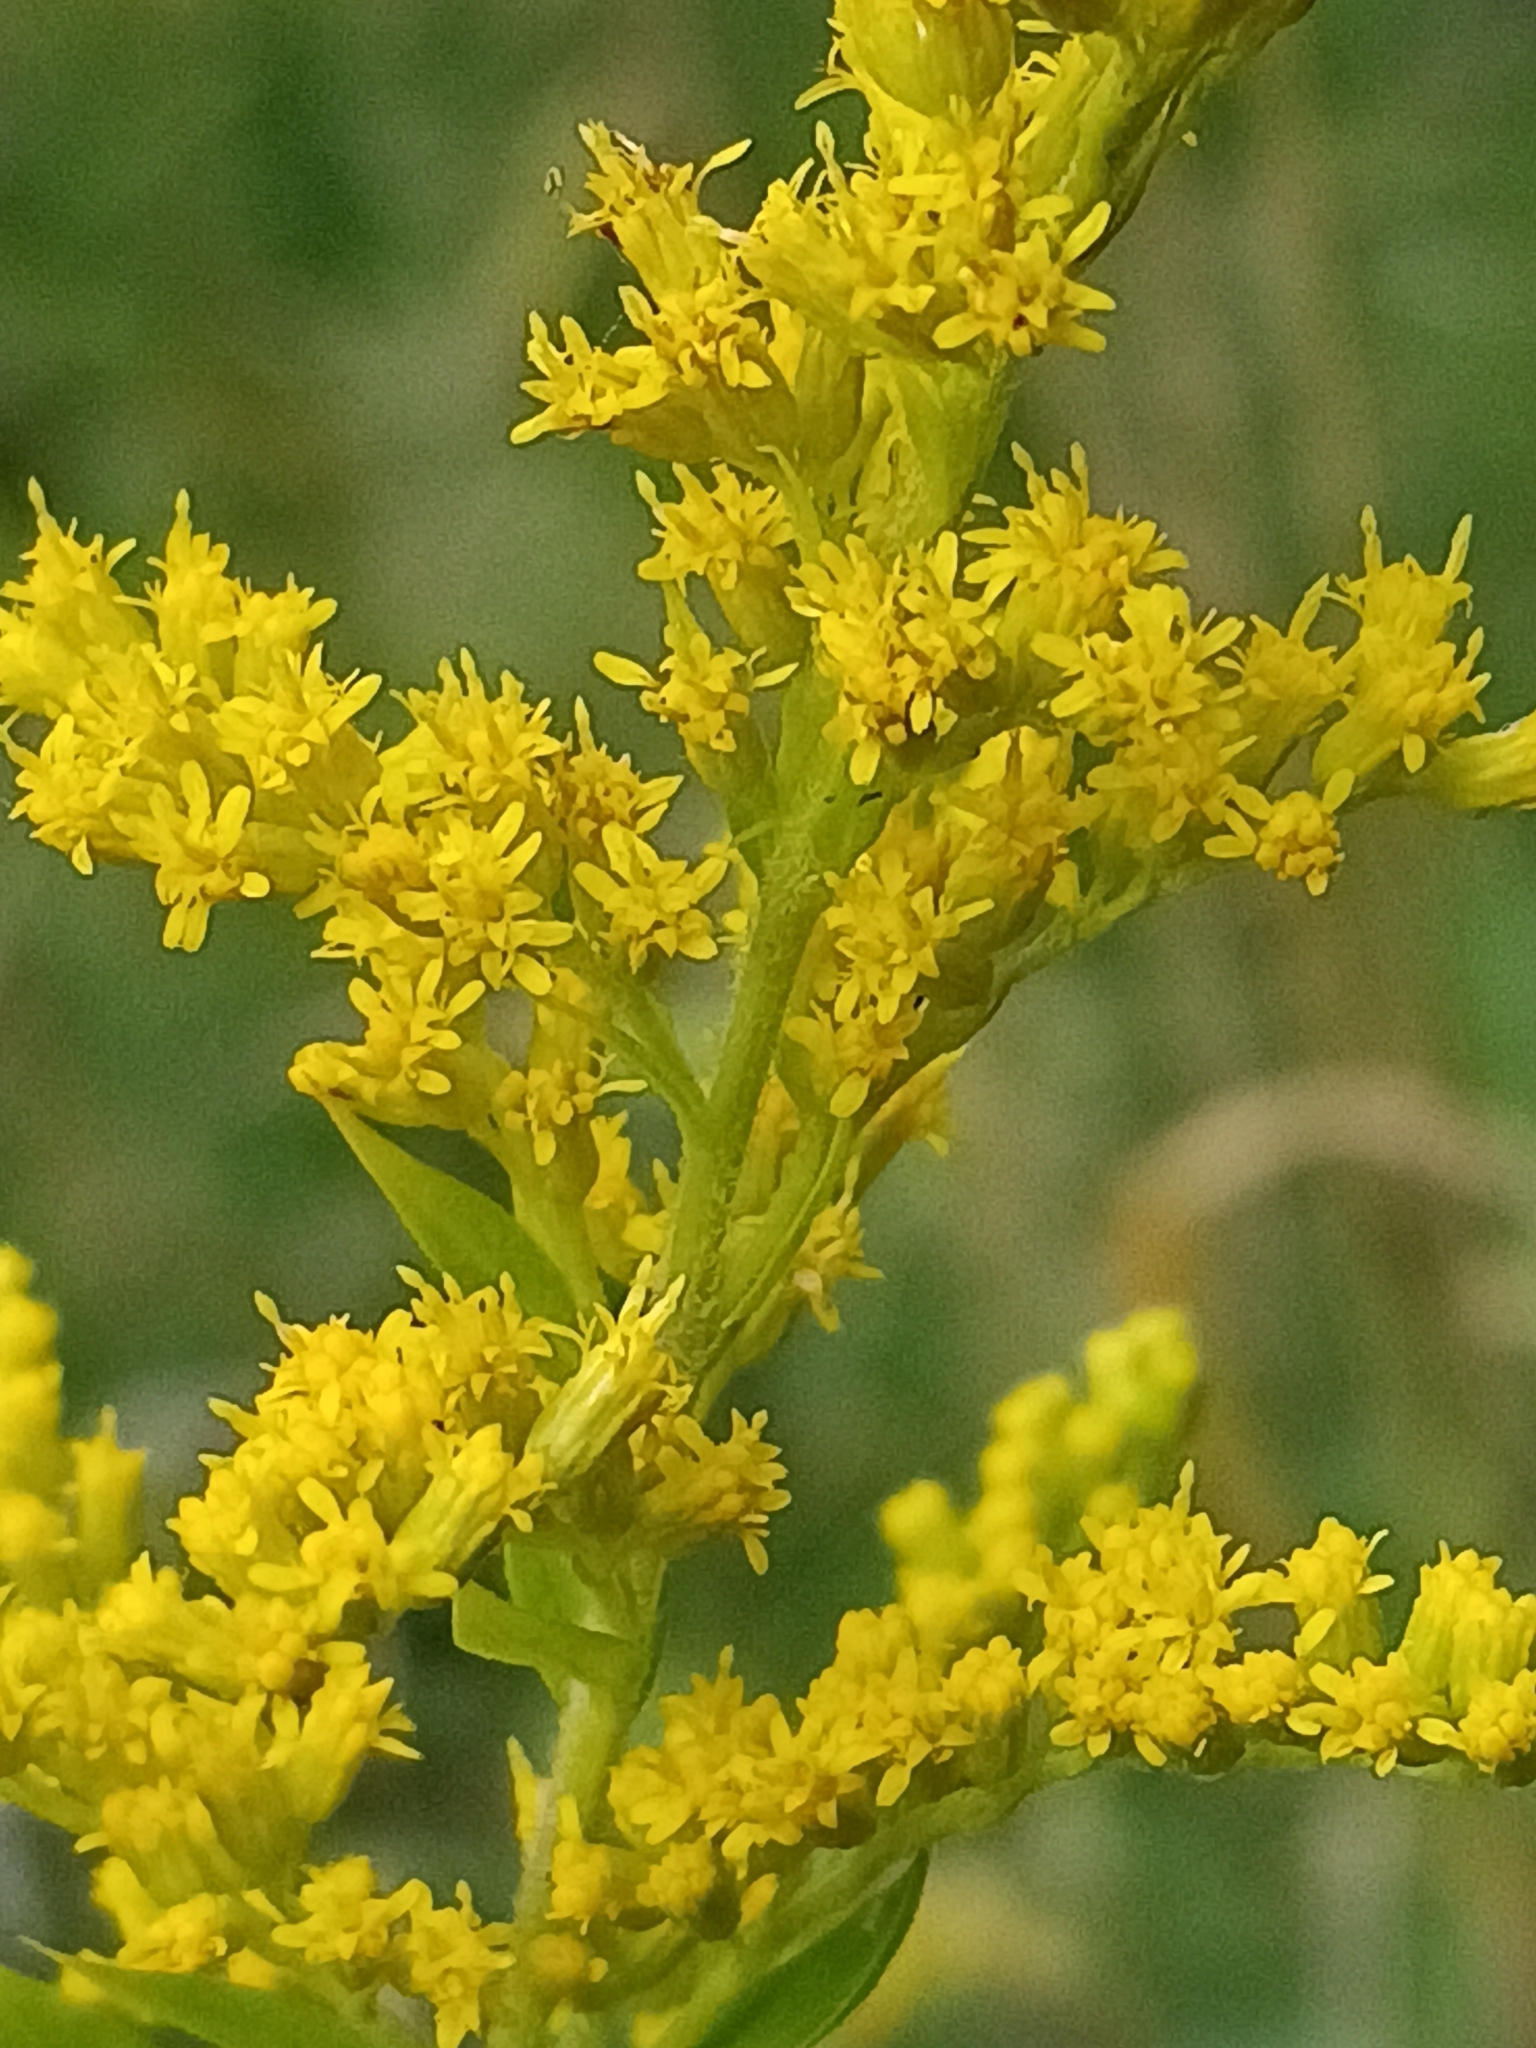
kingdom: Plantae
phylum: Tracheophyta
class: Magnoliopsida
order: Asterales
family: Asteraceae
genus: Solidago
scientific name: Solidago gigantea
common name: Giant goldenrod
